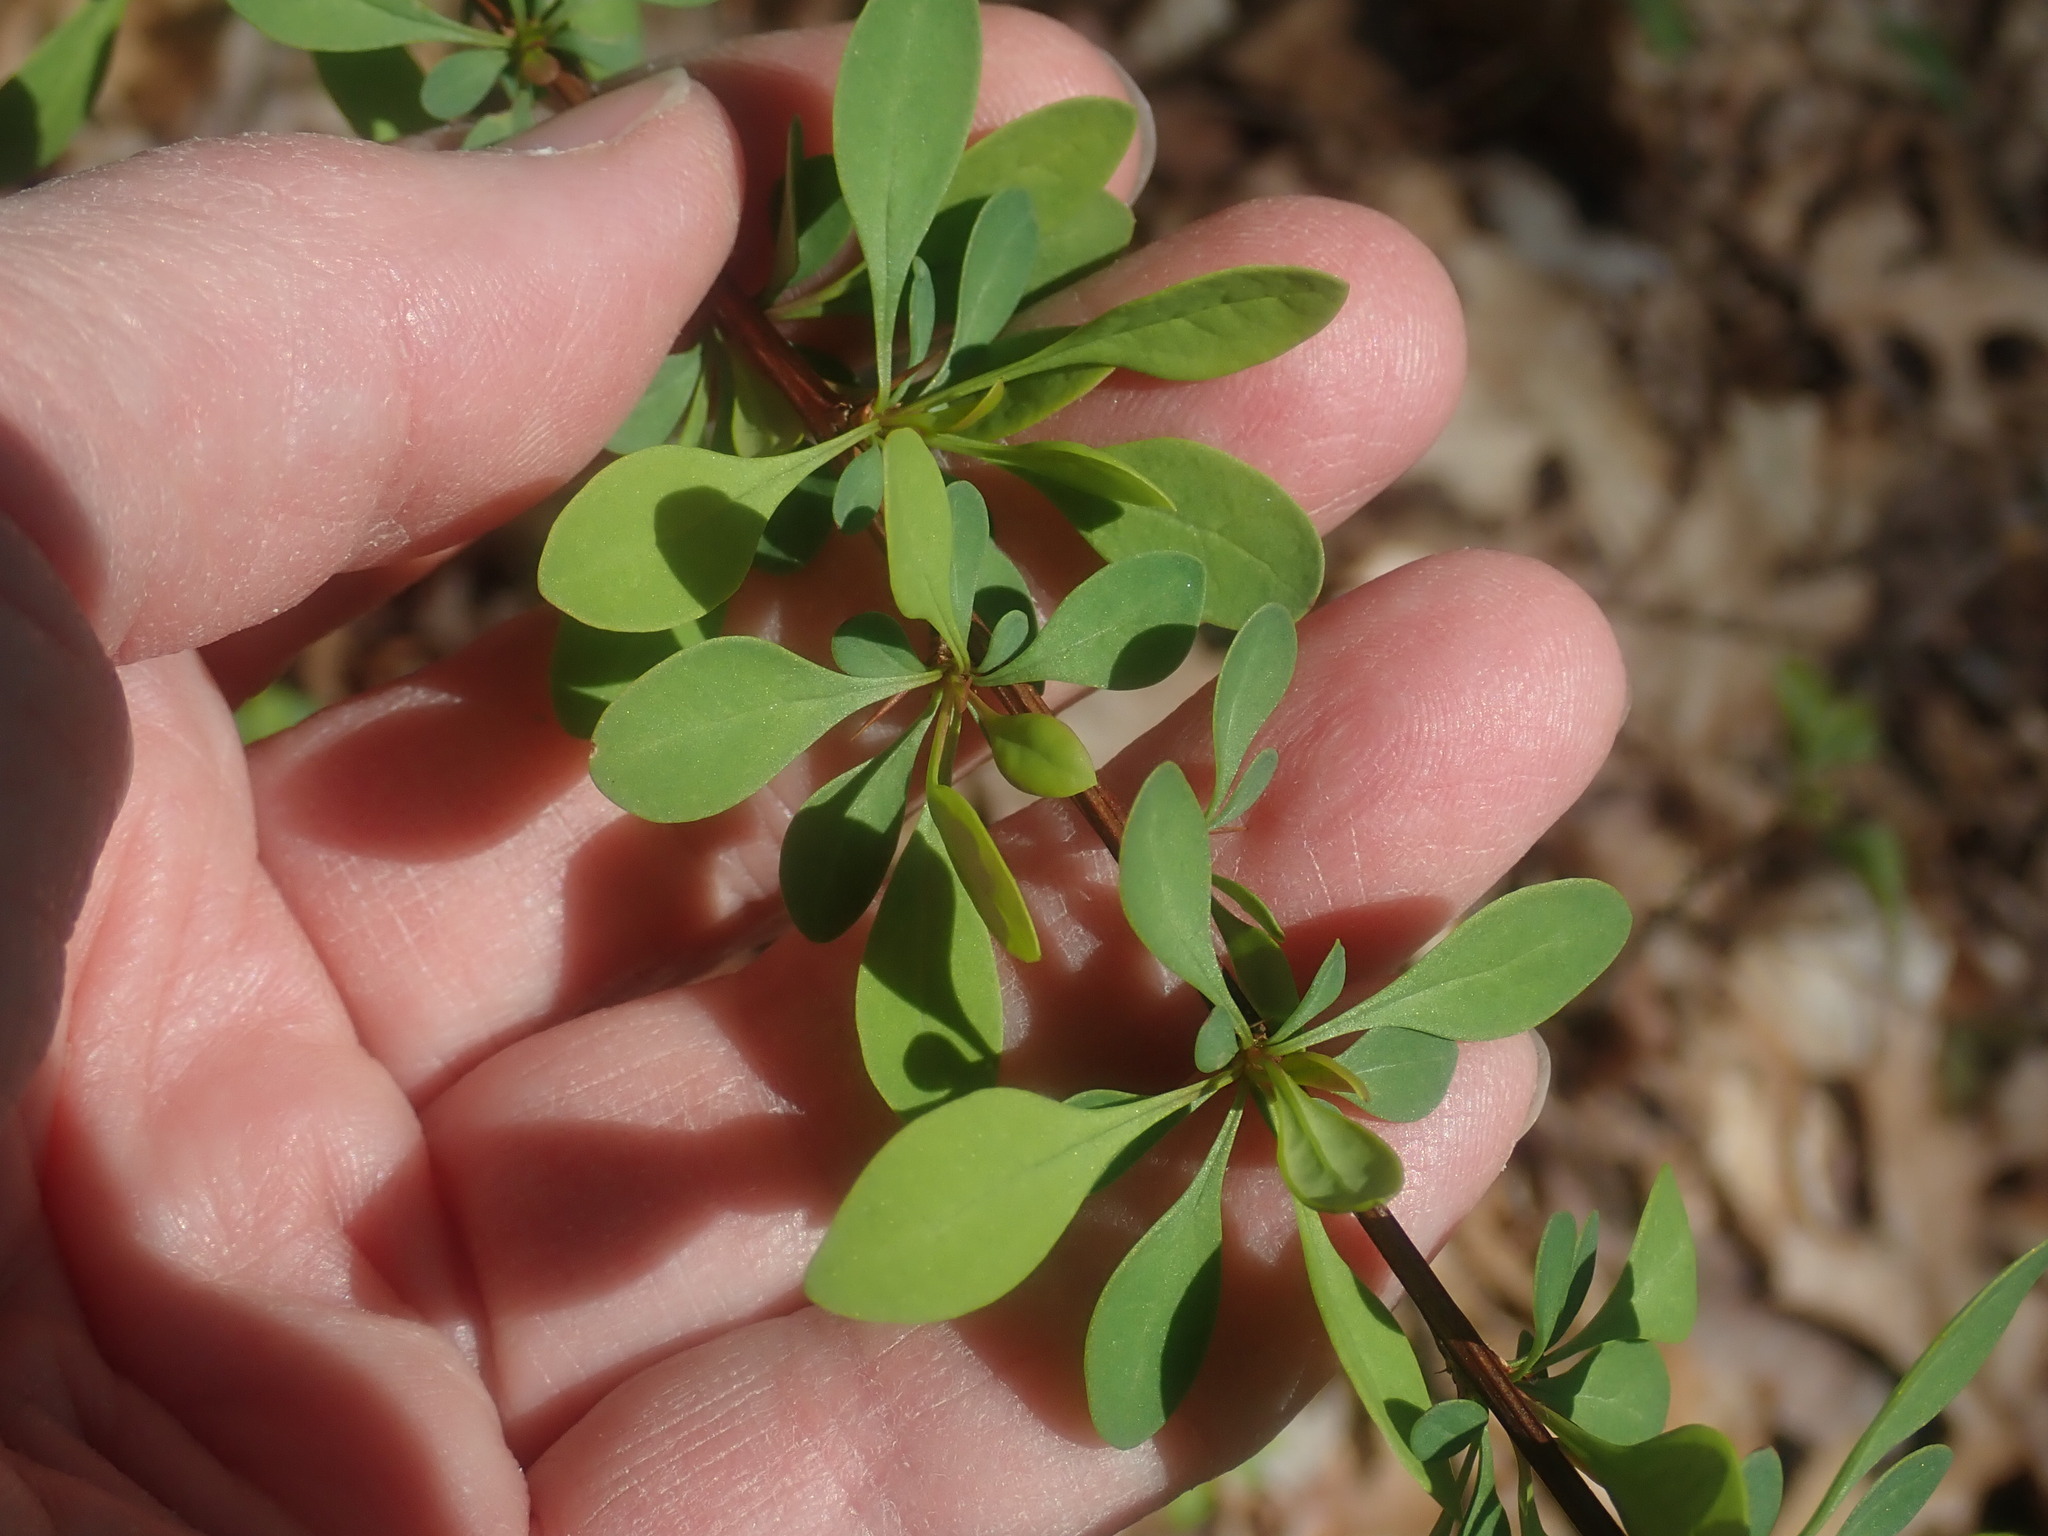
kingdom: Plantae
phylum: Tracheophyta
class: Magnoliopsida
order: Ranunculales
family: Berberidaceae
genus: Berberis
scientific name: Berberis thunbergii
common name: Japanese barberry
